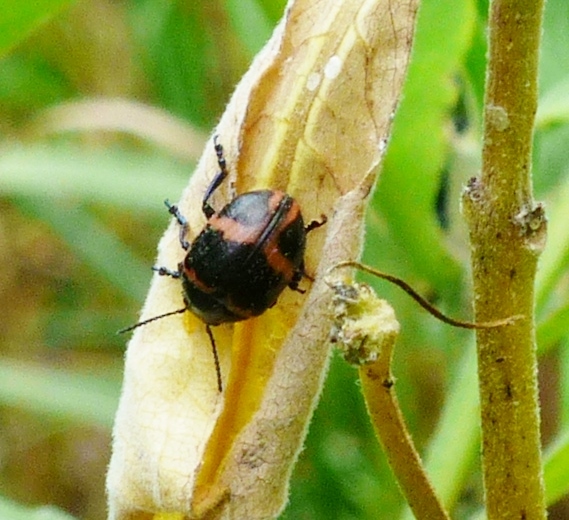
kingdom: Animalia
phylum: Arthropoda
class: Insecta
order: Coleoptera
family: Chrysomelidae
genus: Labidomera
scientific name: Labidomera clivicollis
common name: Swamp milkweed leaf beetle
